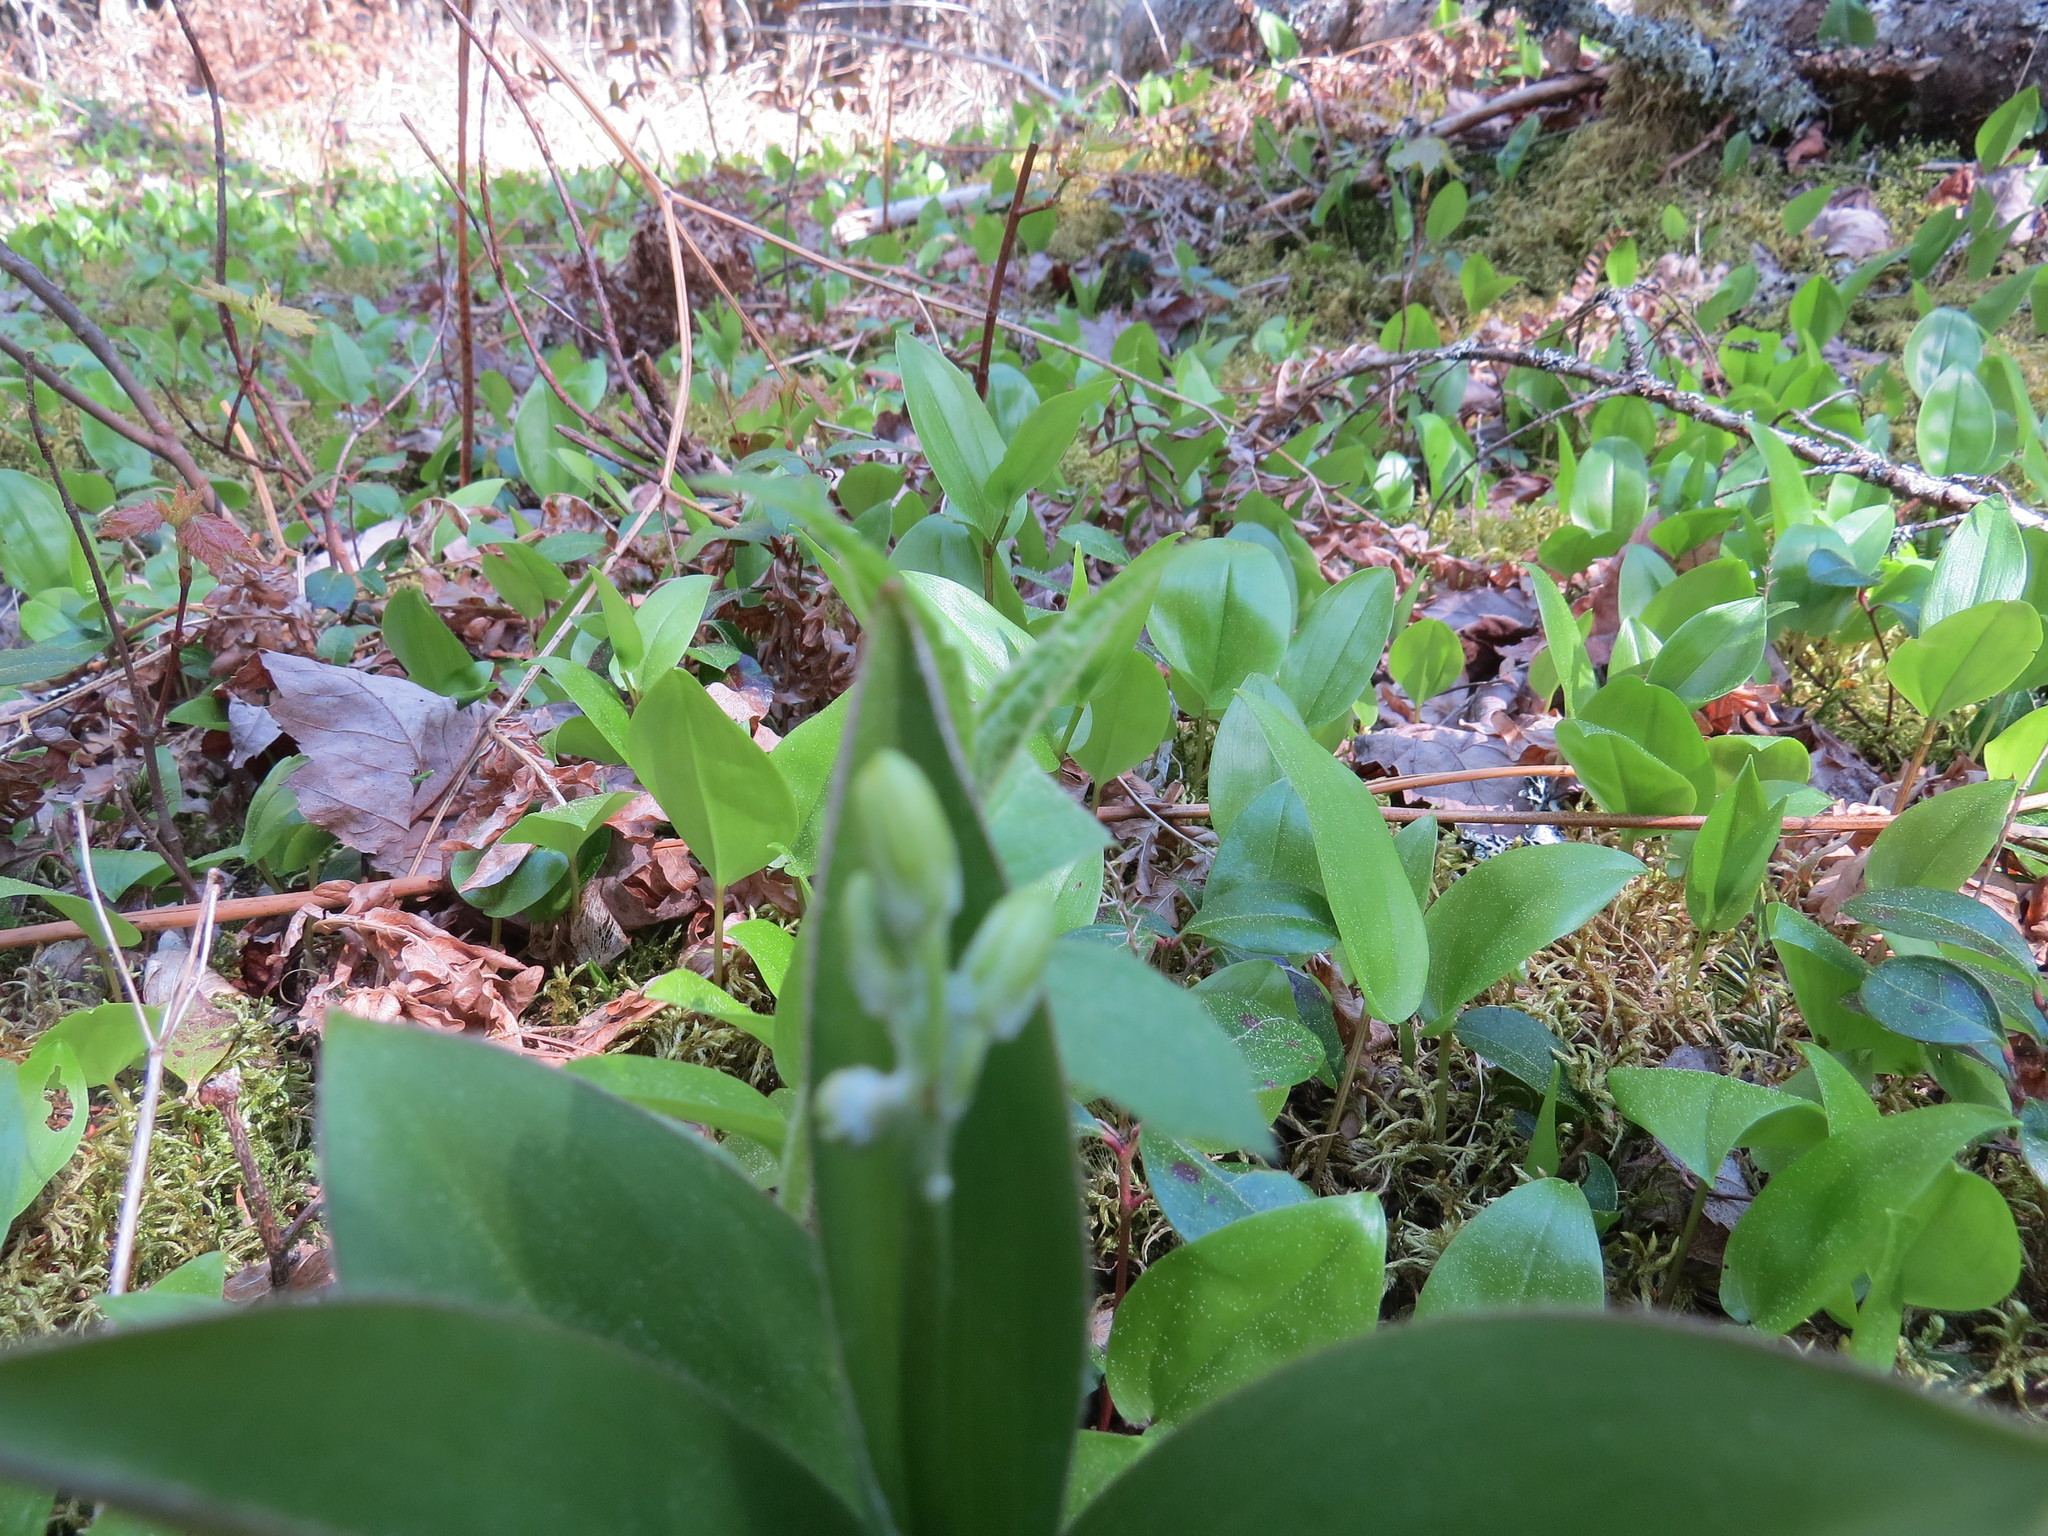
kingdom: Plantae
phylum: Tracheophyta
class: Liliopsida
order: Liliales
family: Liliaceae
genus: Clintonia
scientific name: Clintonia borealis
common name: Yellow clintonia
